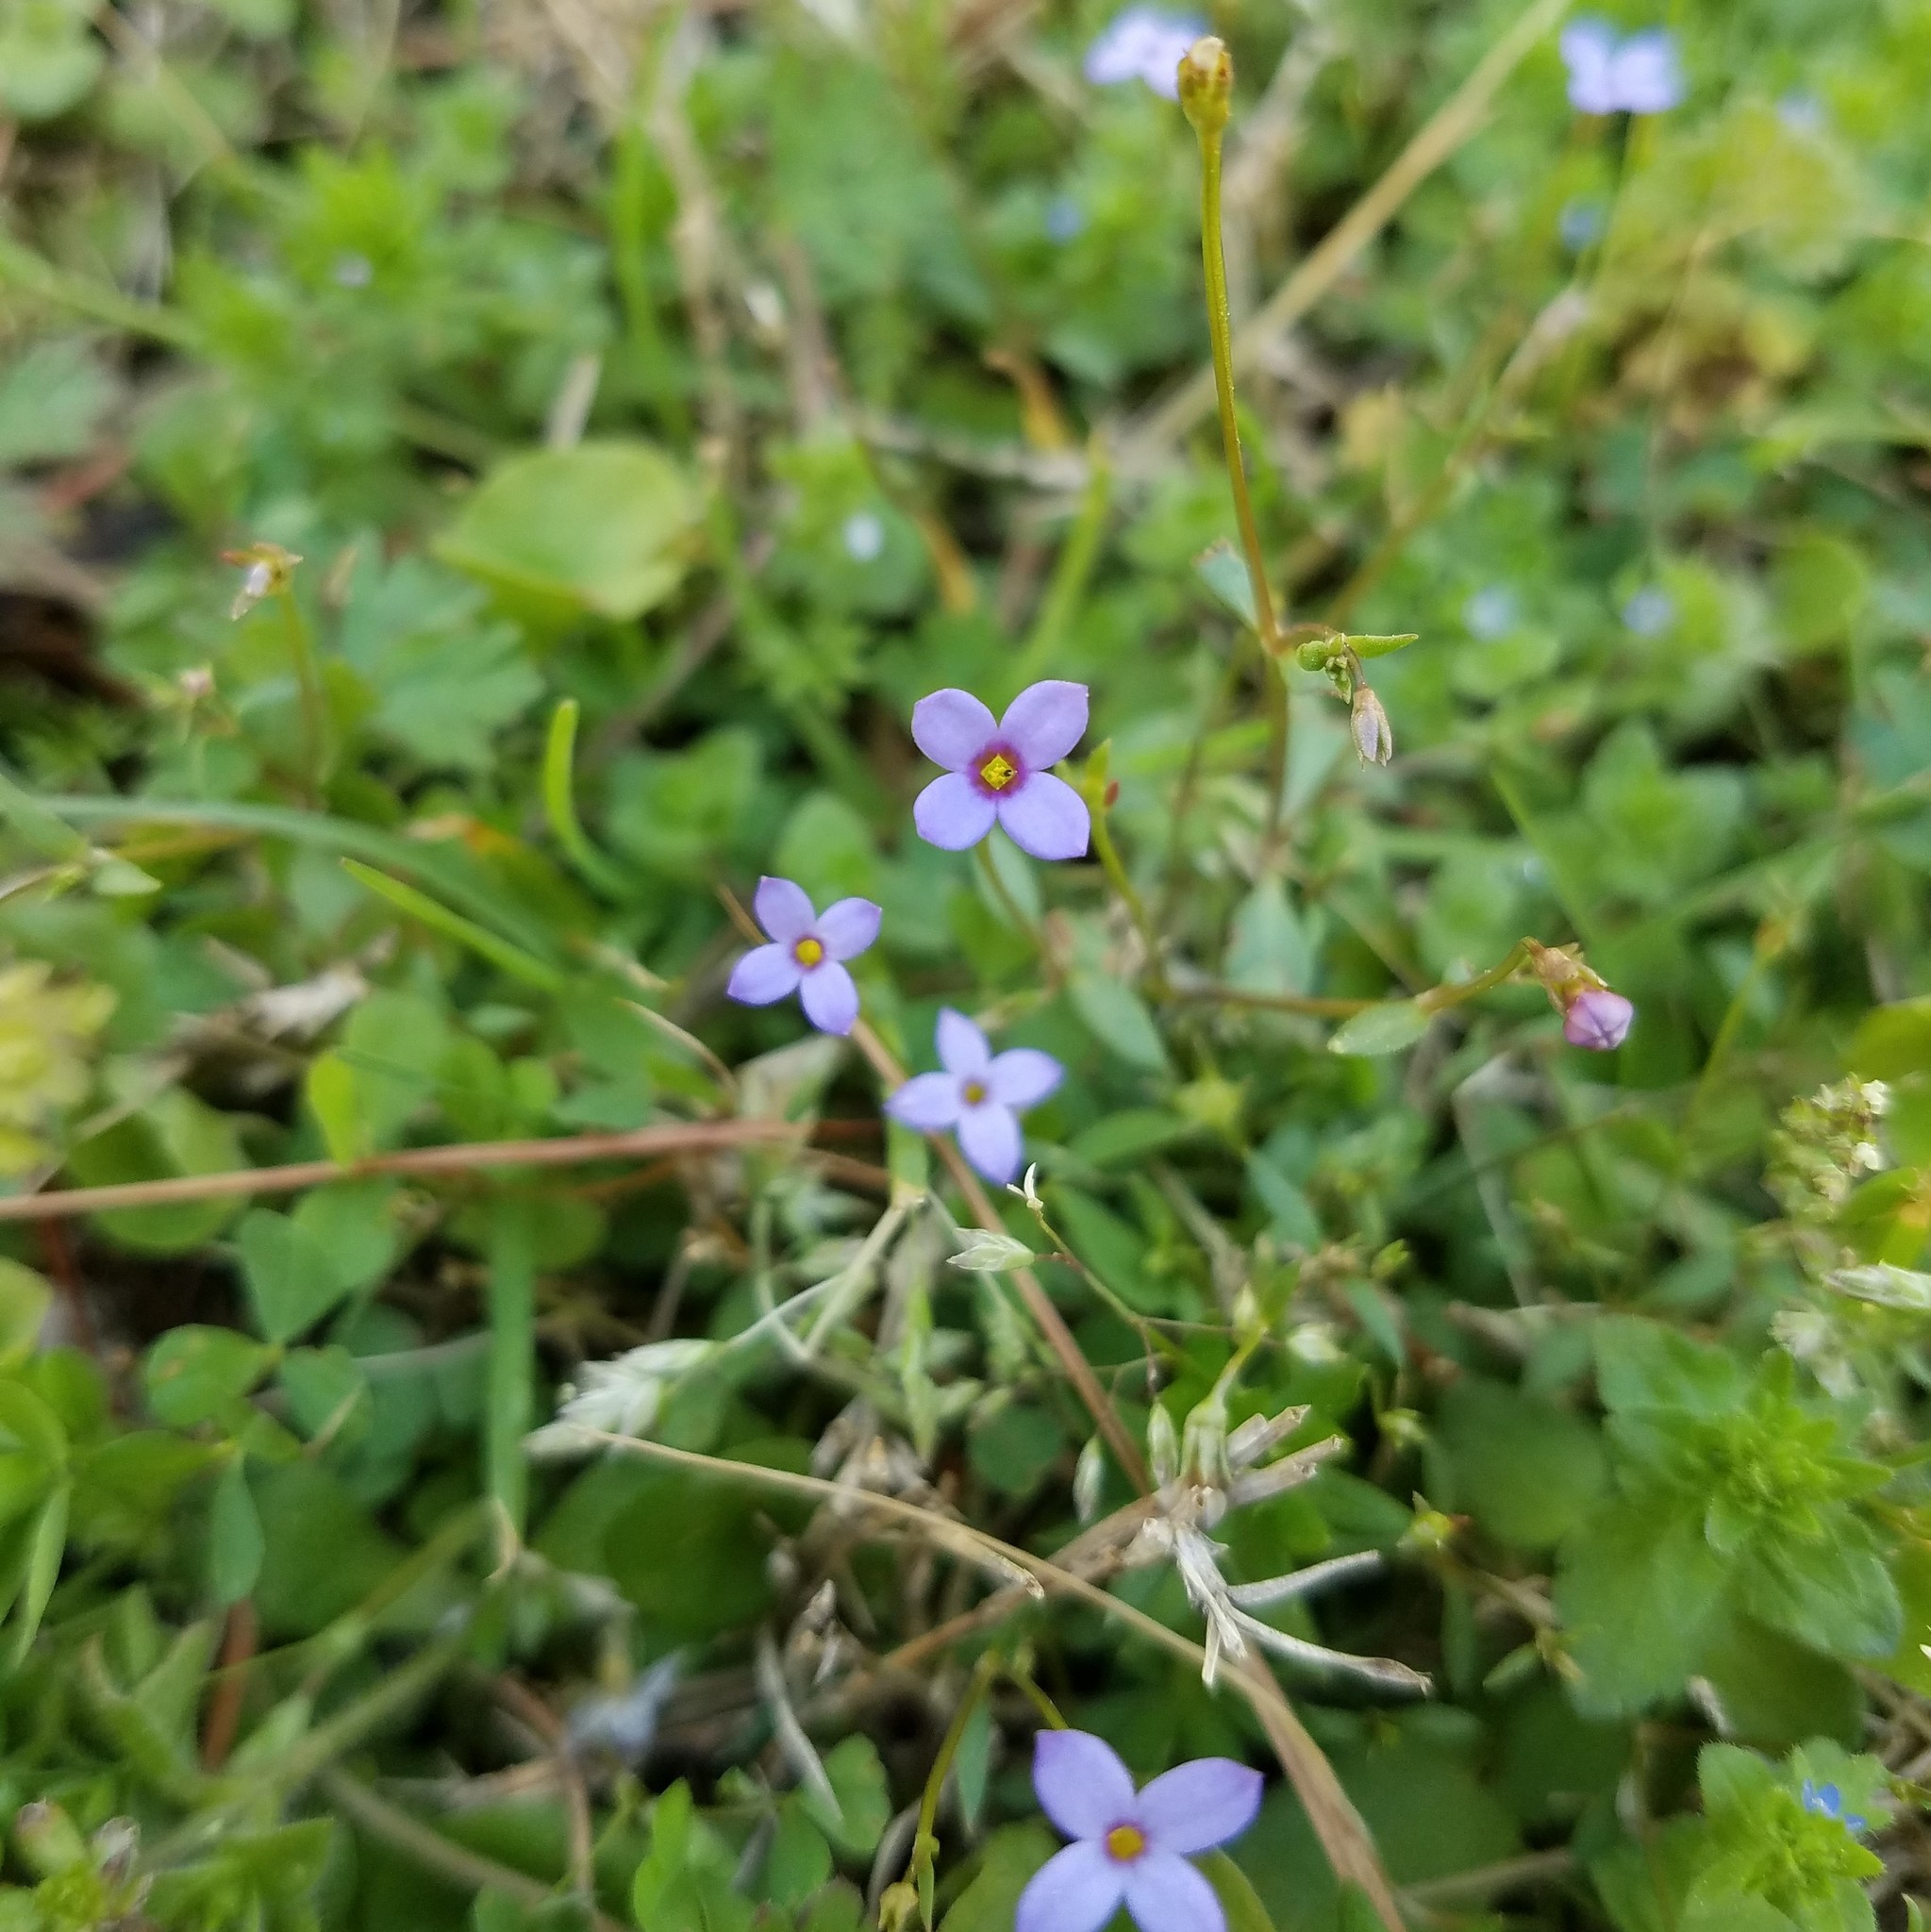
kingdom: Plantae
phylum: Tracheophyta
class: Magnoliopsida
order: Gentianales
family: Rubiaceae
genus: Houstonia
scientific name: Houstonia pusilla
